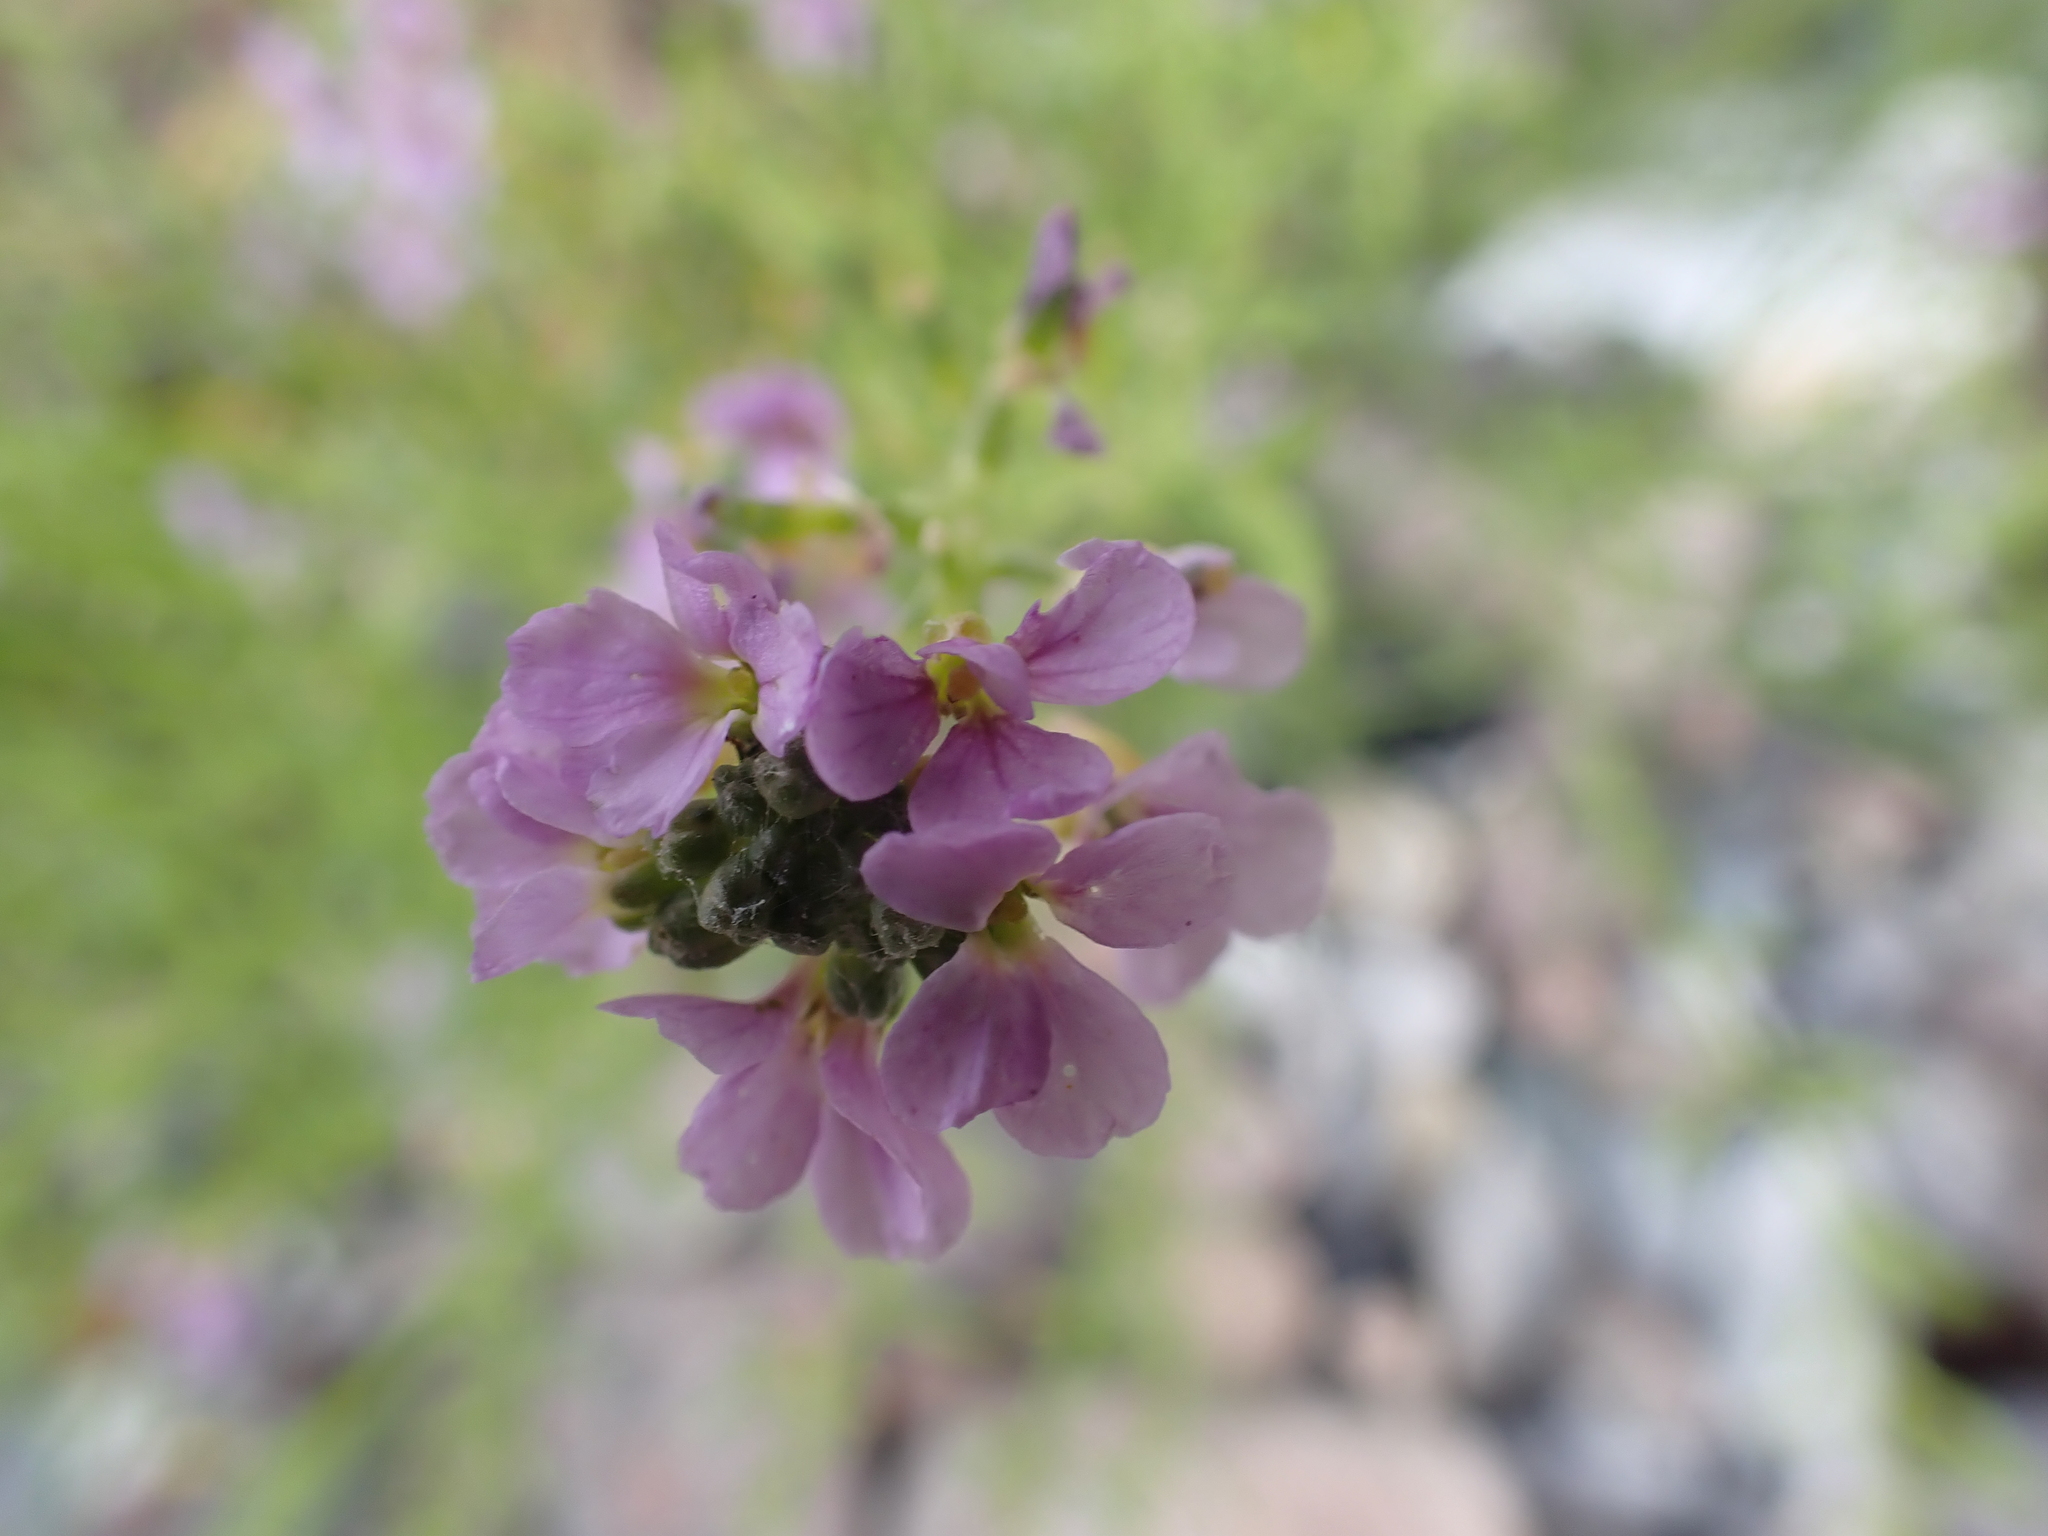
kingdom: Plantae
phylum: Tracheophyta
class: Magnoliopsida
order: Brassicales
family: Brassicaceae
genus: Cakile
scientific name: Cakile maritima
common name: Sea rocket
